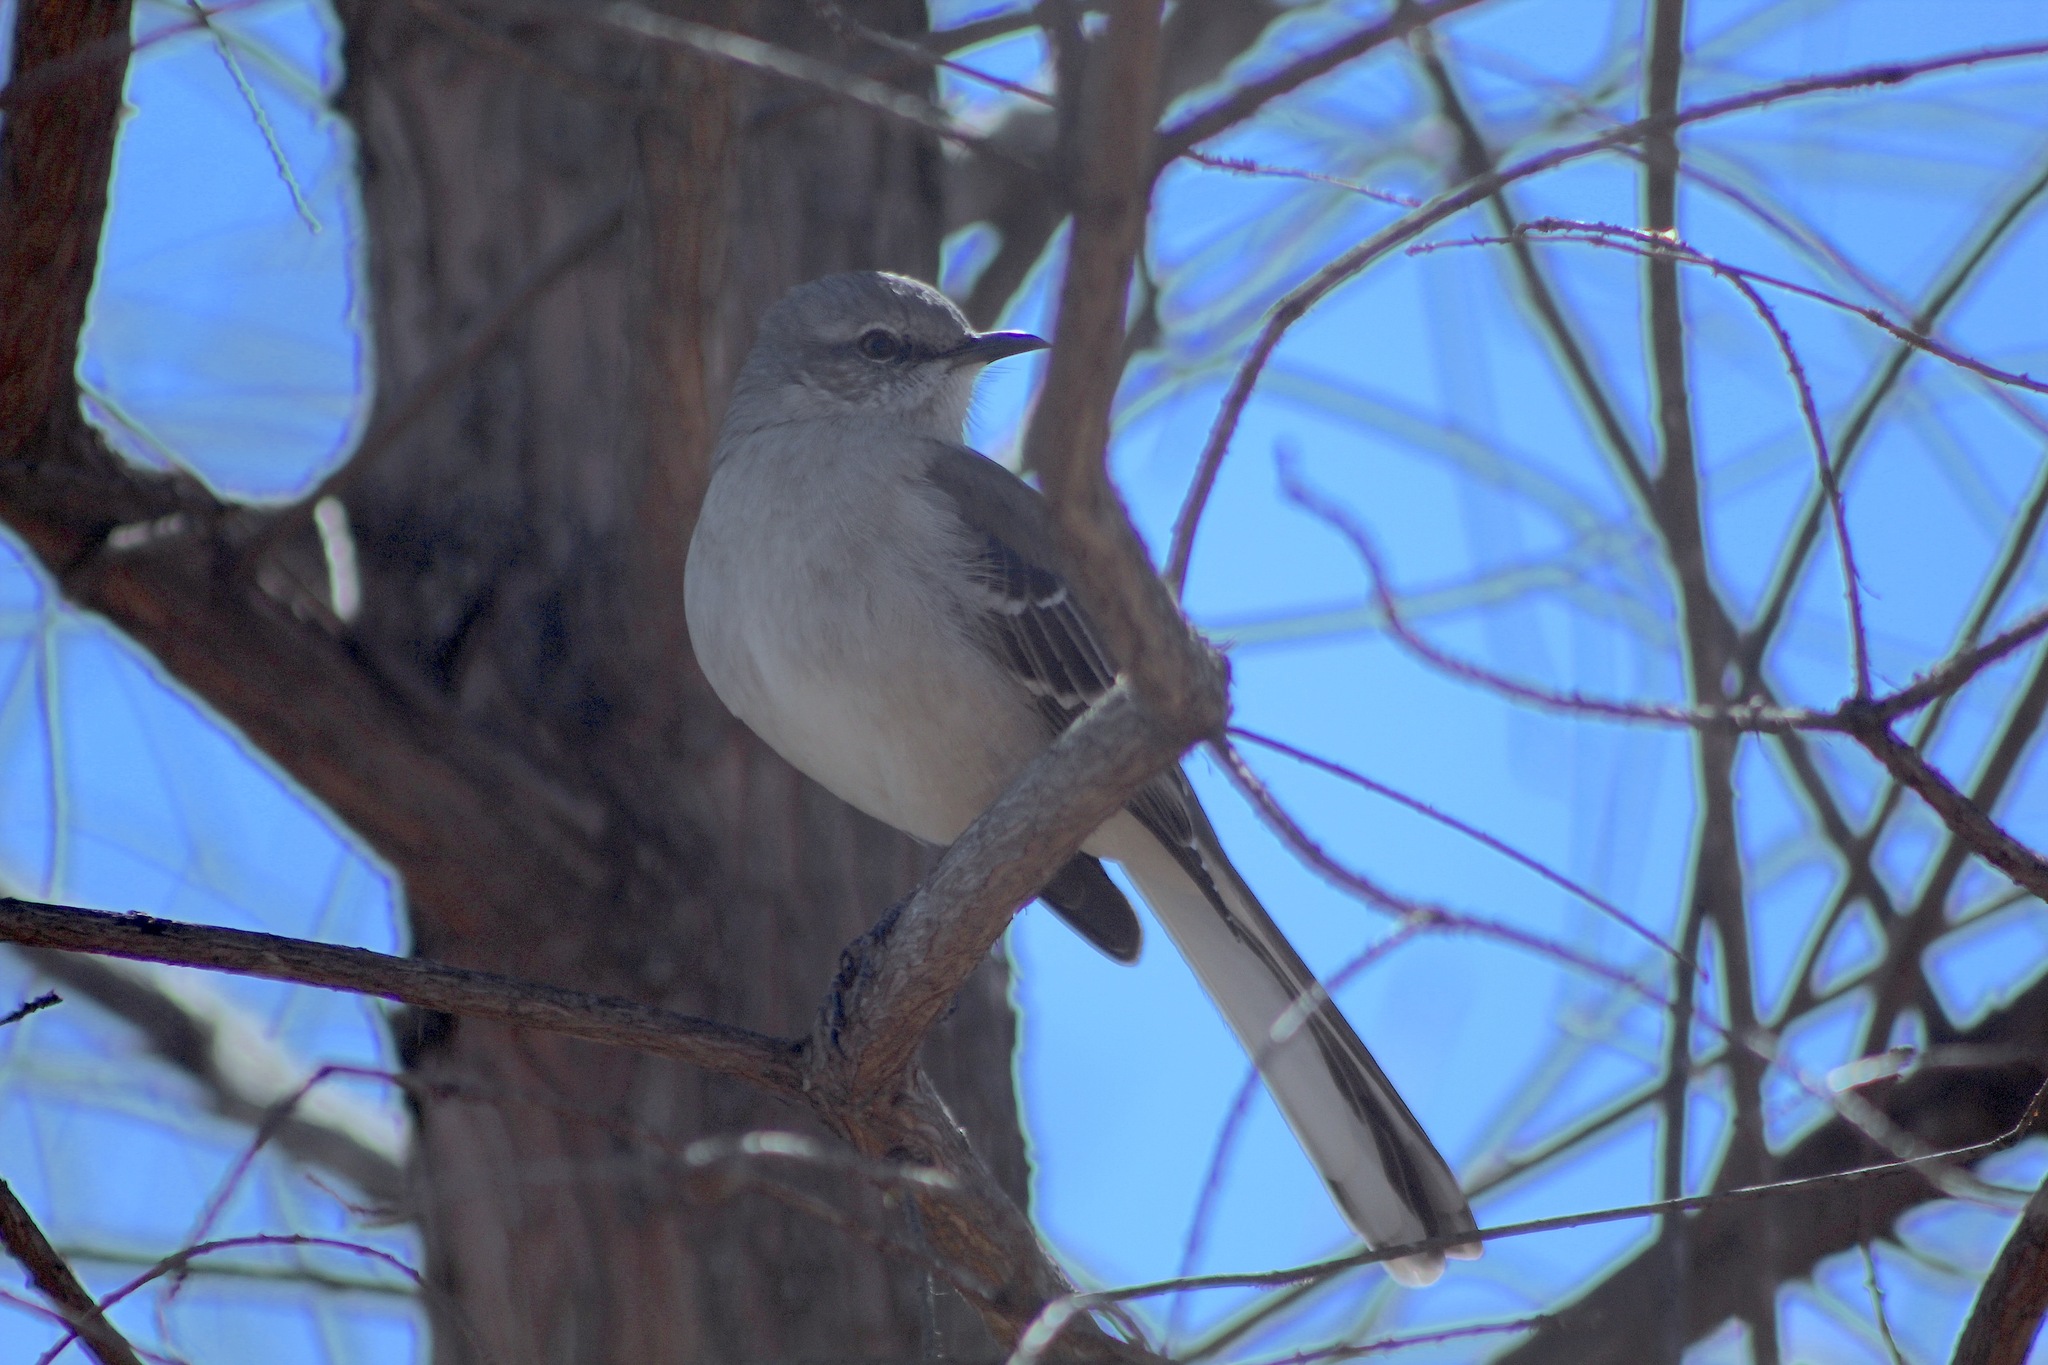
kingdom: Animalia
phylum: Chordata
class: Aves
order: Passeriformes
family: Mimidae
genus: Mimus
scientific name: Mimus polyglottos
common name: Northern mockingbird
